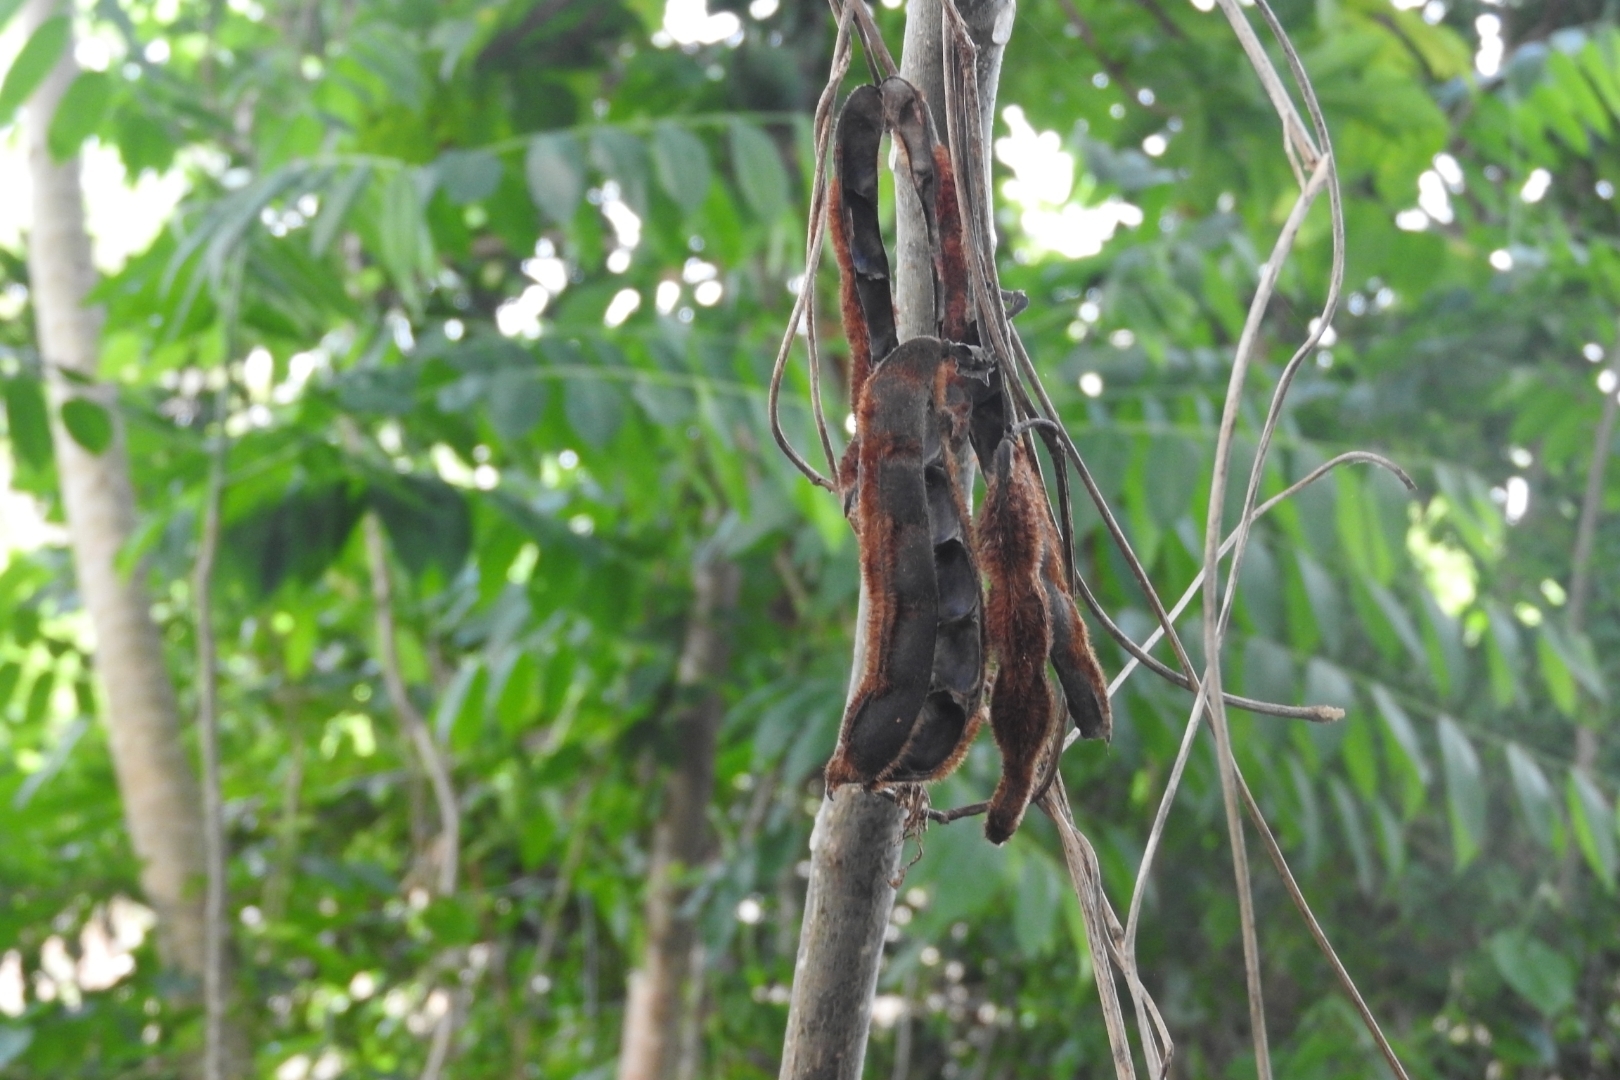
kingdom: Plantae
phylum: Tracheophyta
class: Magnoliopsida
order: Fabales
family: Fabaceae
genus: Mucuna
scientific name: Mucuna pruriens
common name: Cow-itch
